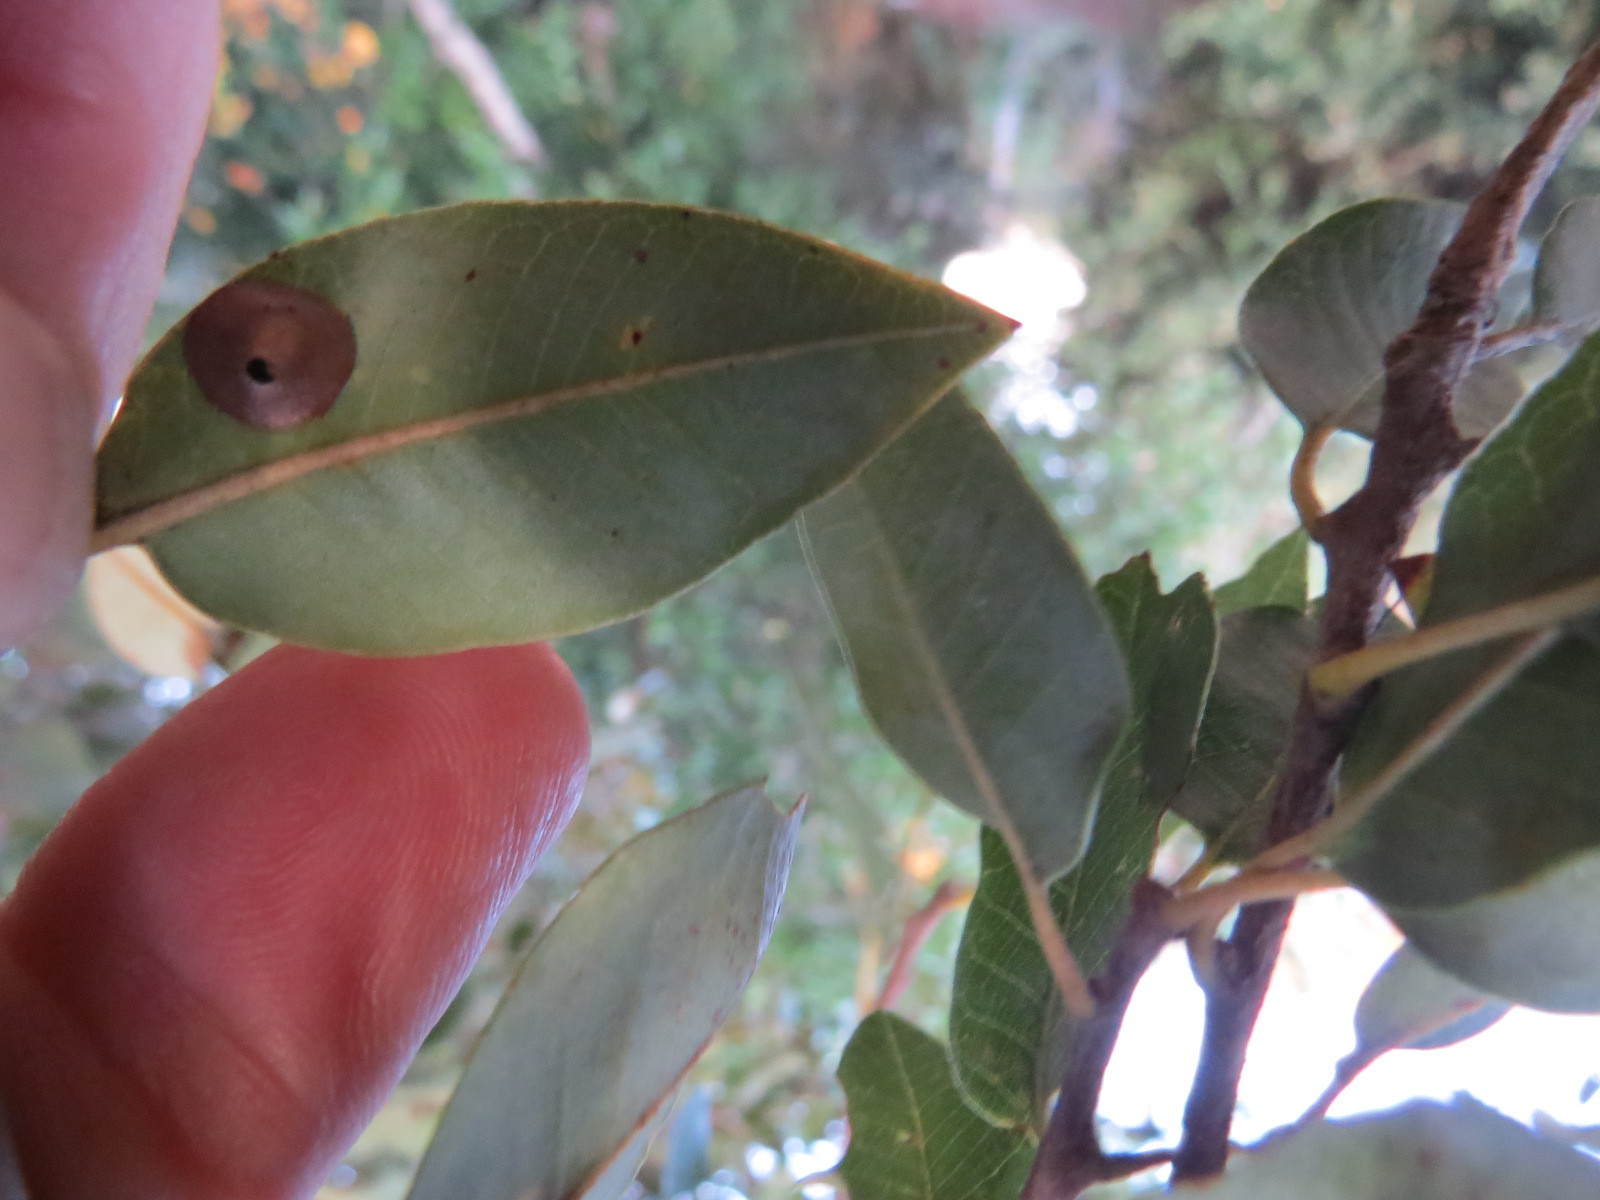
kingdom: Animalia
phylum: Arthropoda
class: Insecta
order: Hymenoptera
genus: Paracraspis
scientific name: Paracraspis
